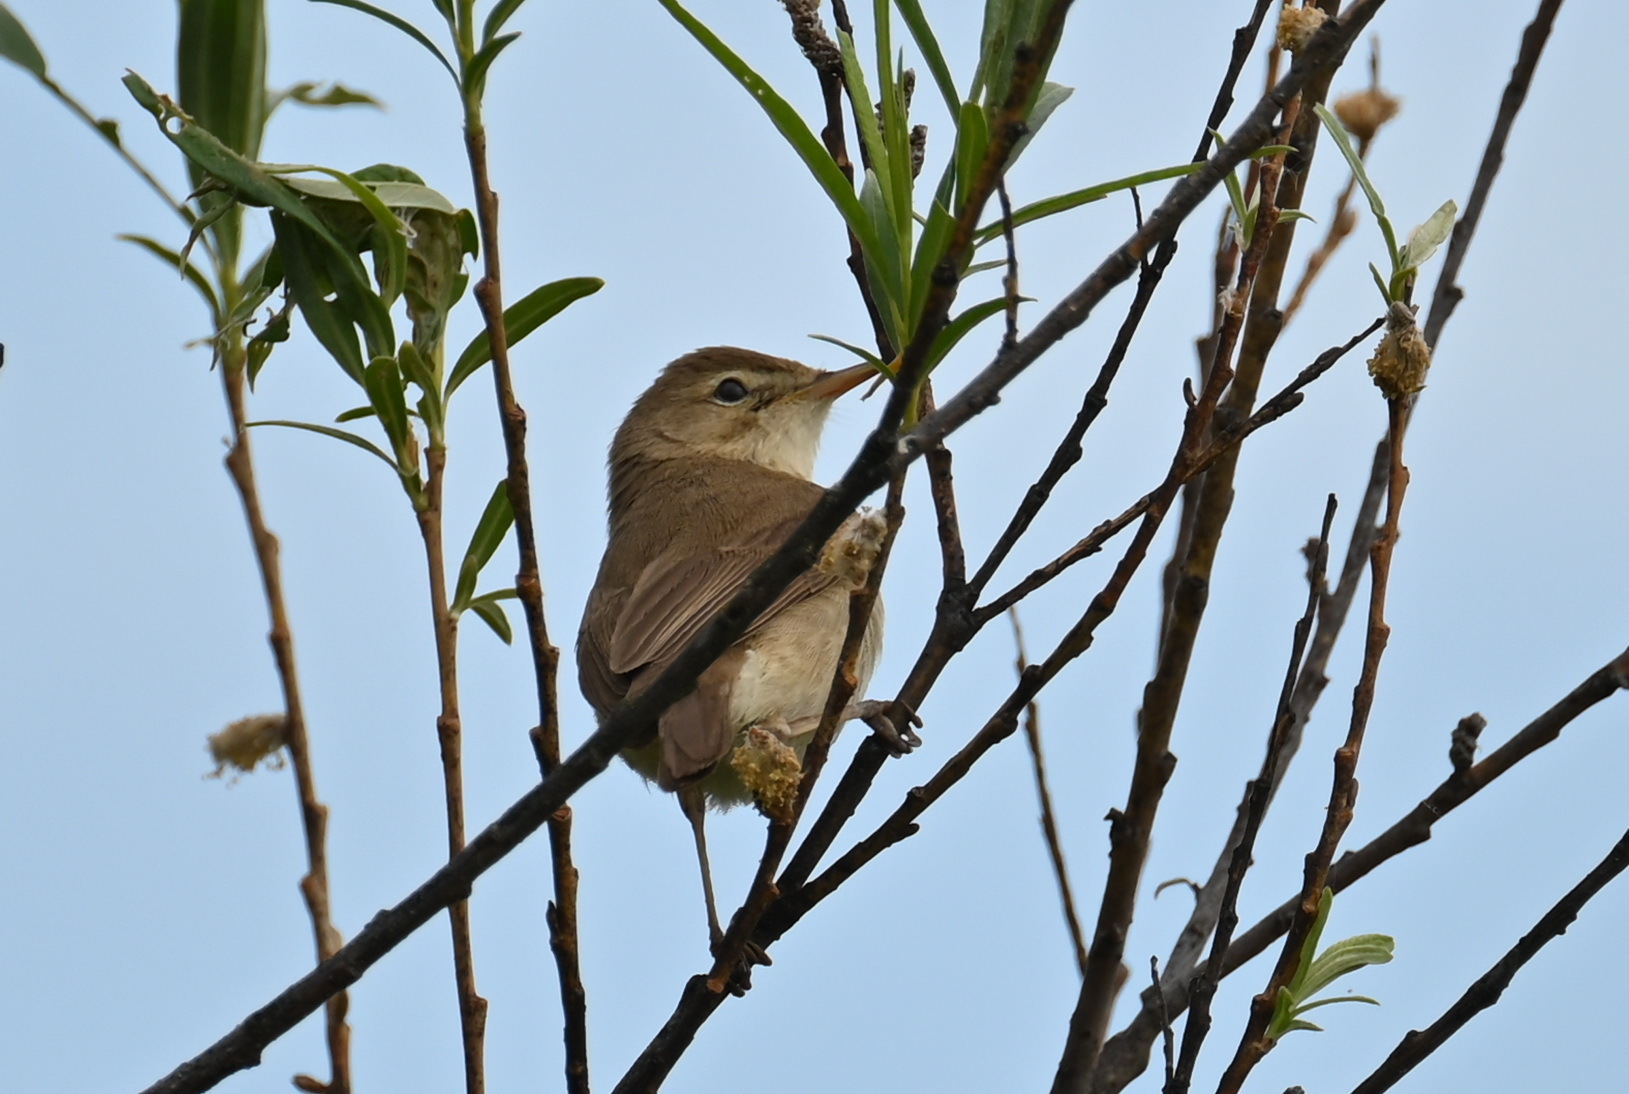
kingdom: Animalia
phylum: Chordata
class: Aves
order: Passeriformes
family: Acrocephalidae
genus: Iduna
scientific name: Iduna caligata
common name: Booted warbler
